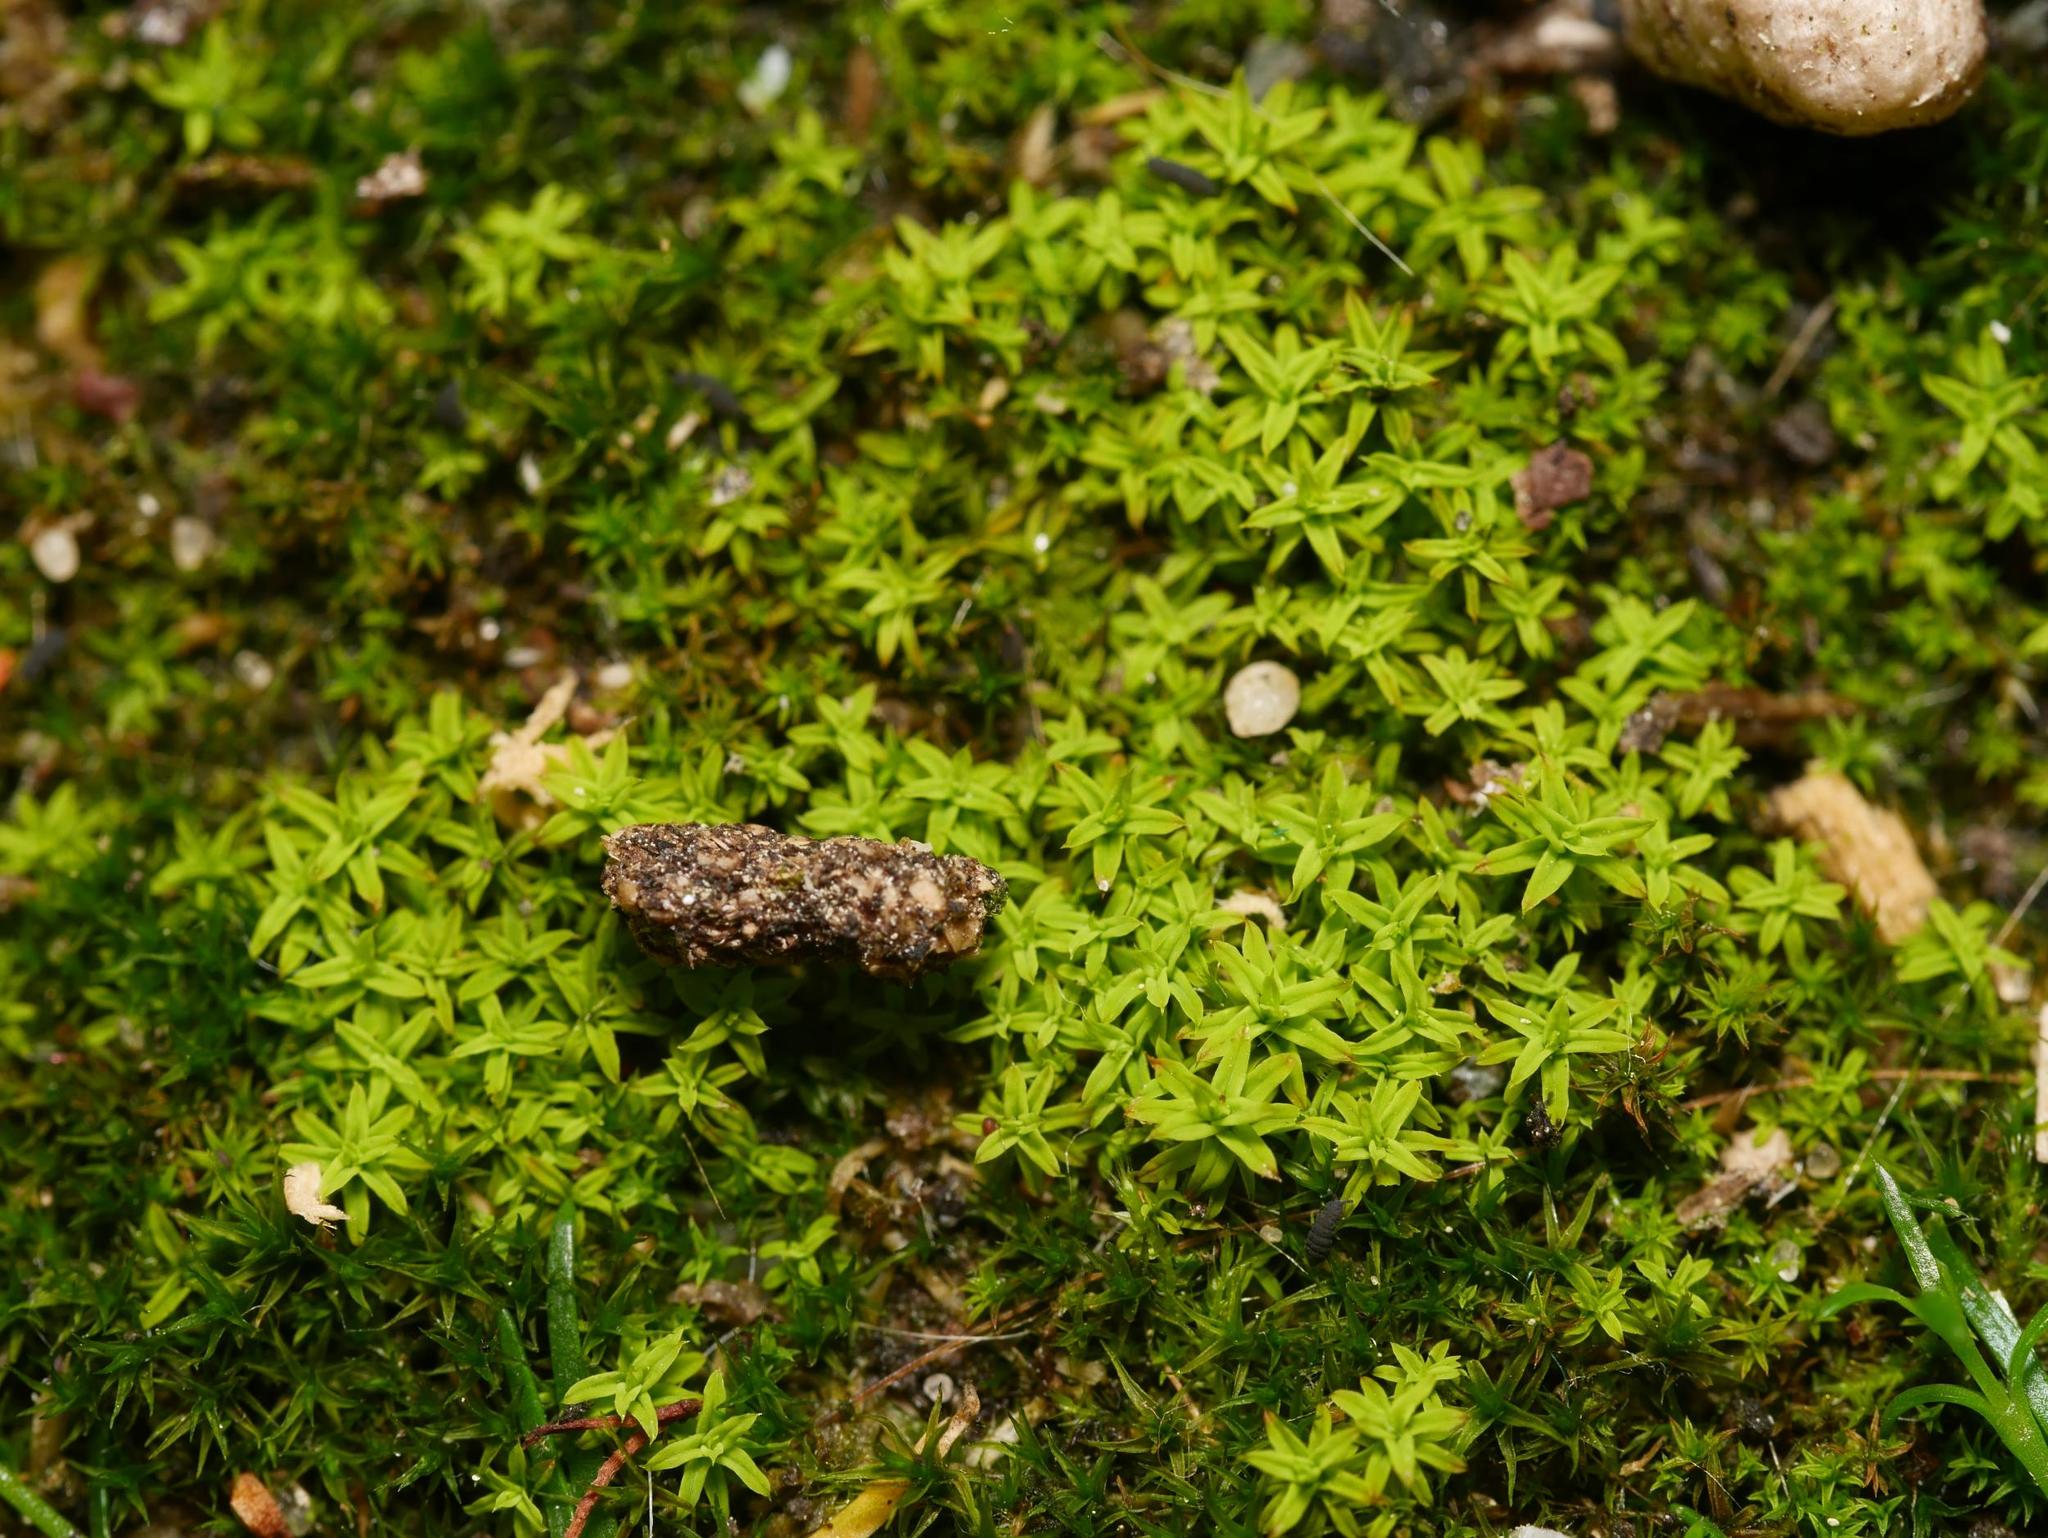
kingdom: Plantae
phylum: Bryophyta
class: Bryopsida
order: Pottiales
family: Pottiaceae
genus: Barbula
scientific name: Barbula unguiculata
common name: Prickly beard moss
